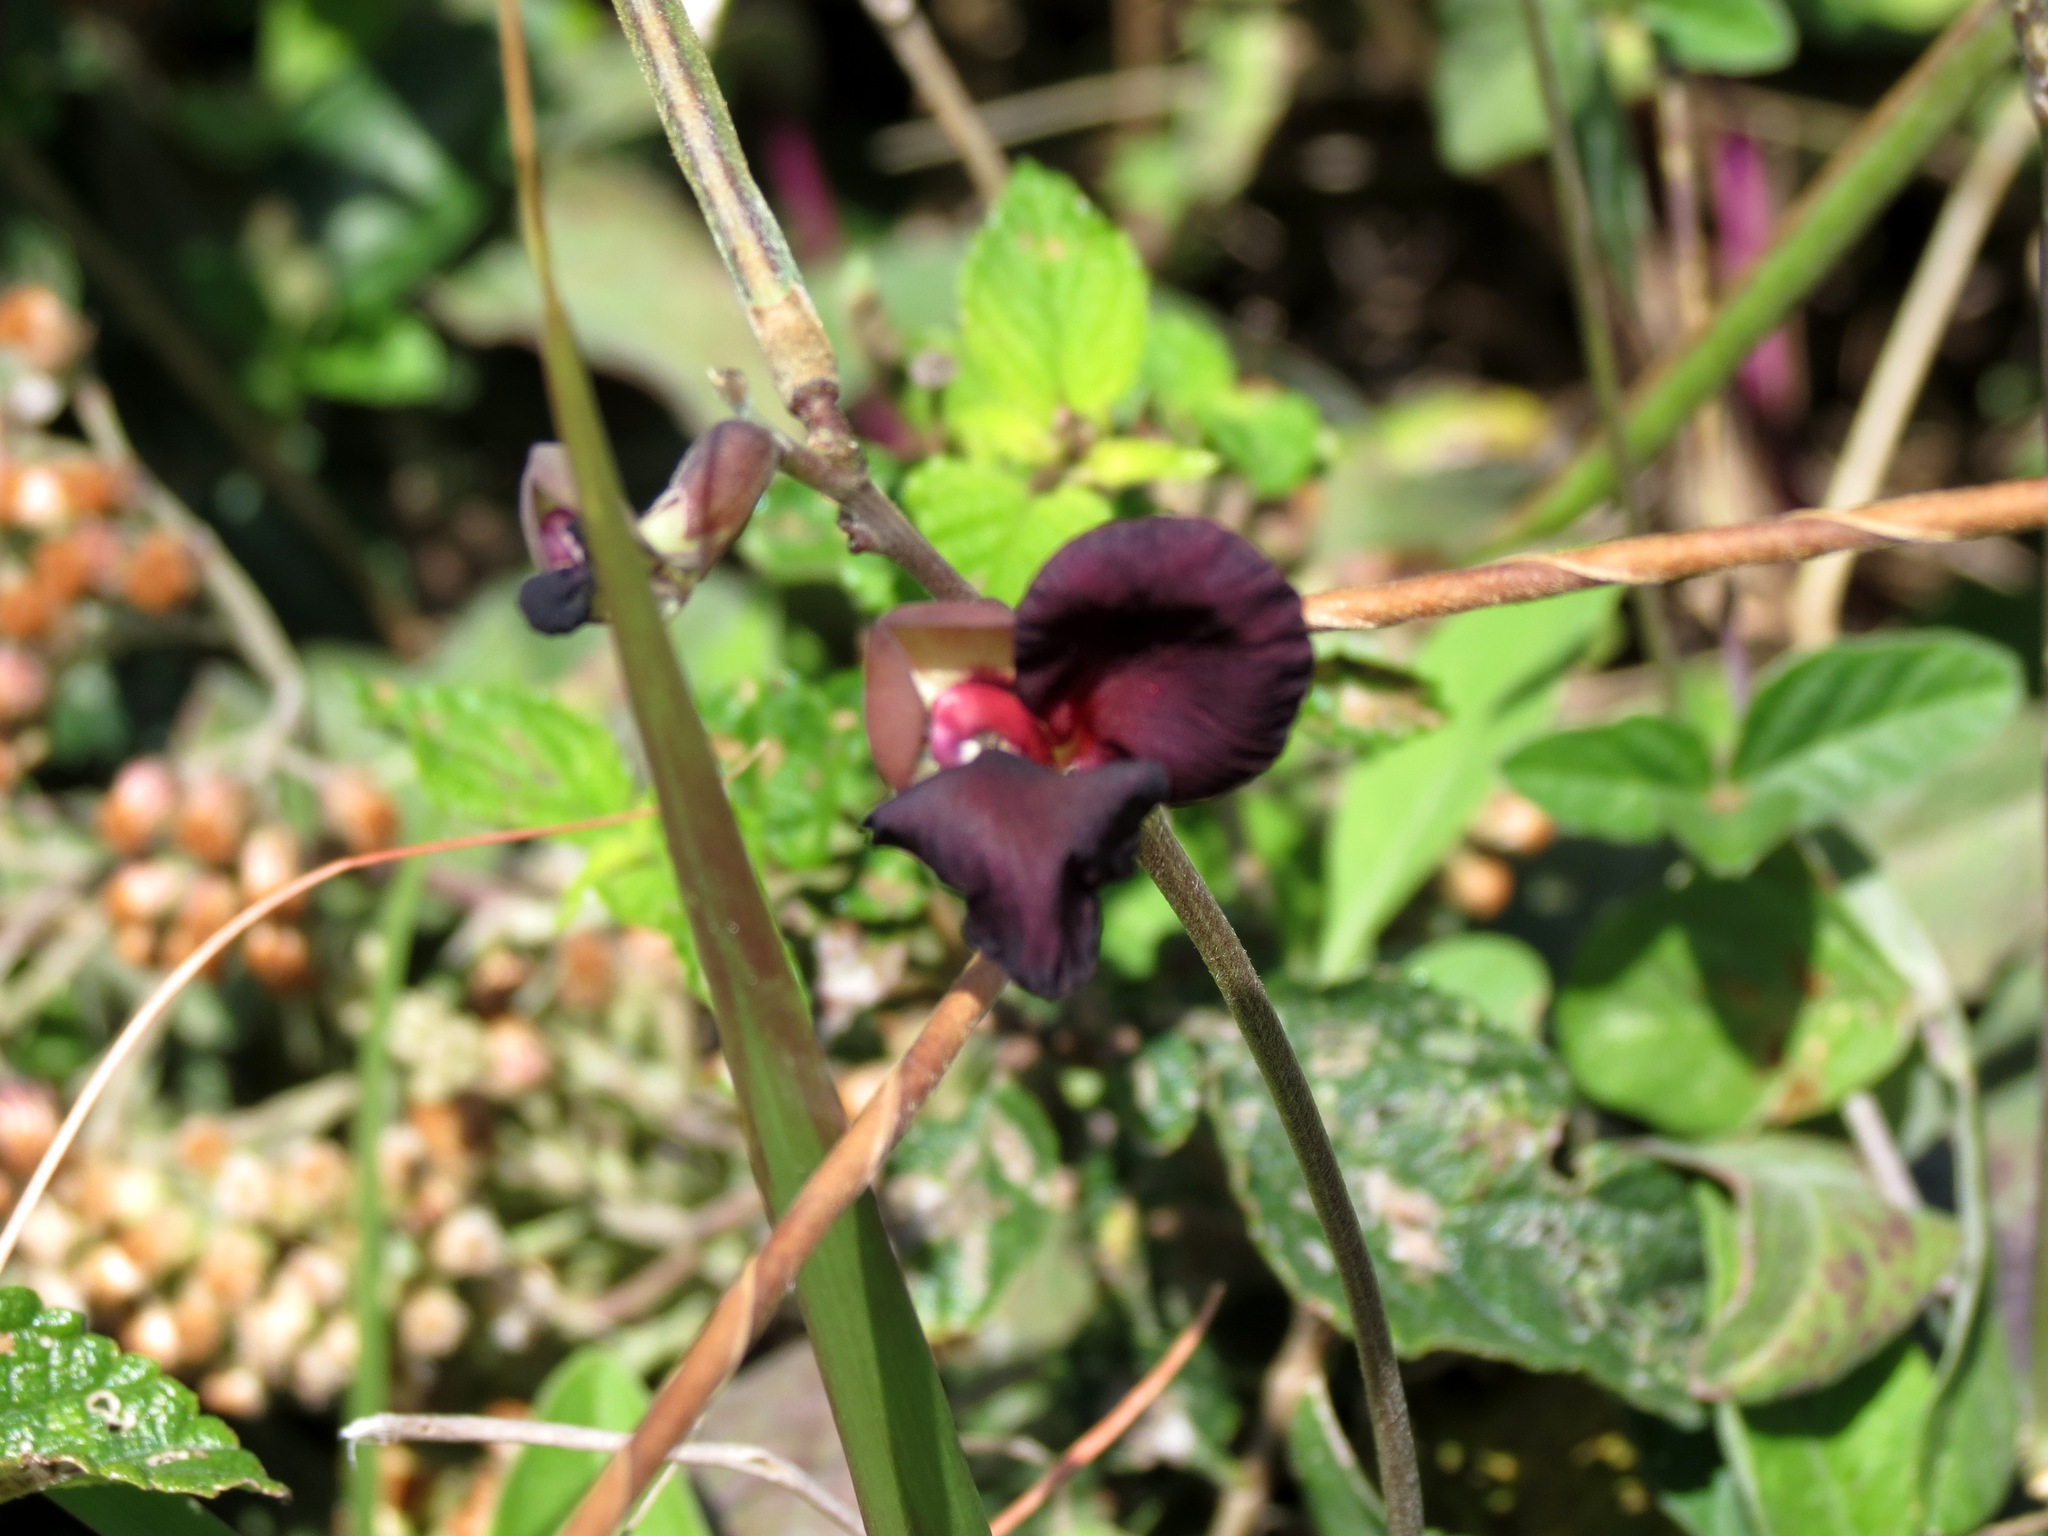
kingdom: Plantae
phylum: Tracheophyta
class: Magnoliopsida
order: Fabales
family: Fabaceae
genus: Macroptilium
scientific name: Macroptilium atropurpureum
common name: Purple bushbean
